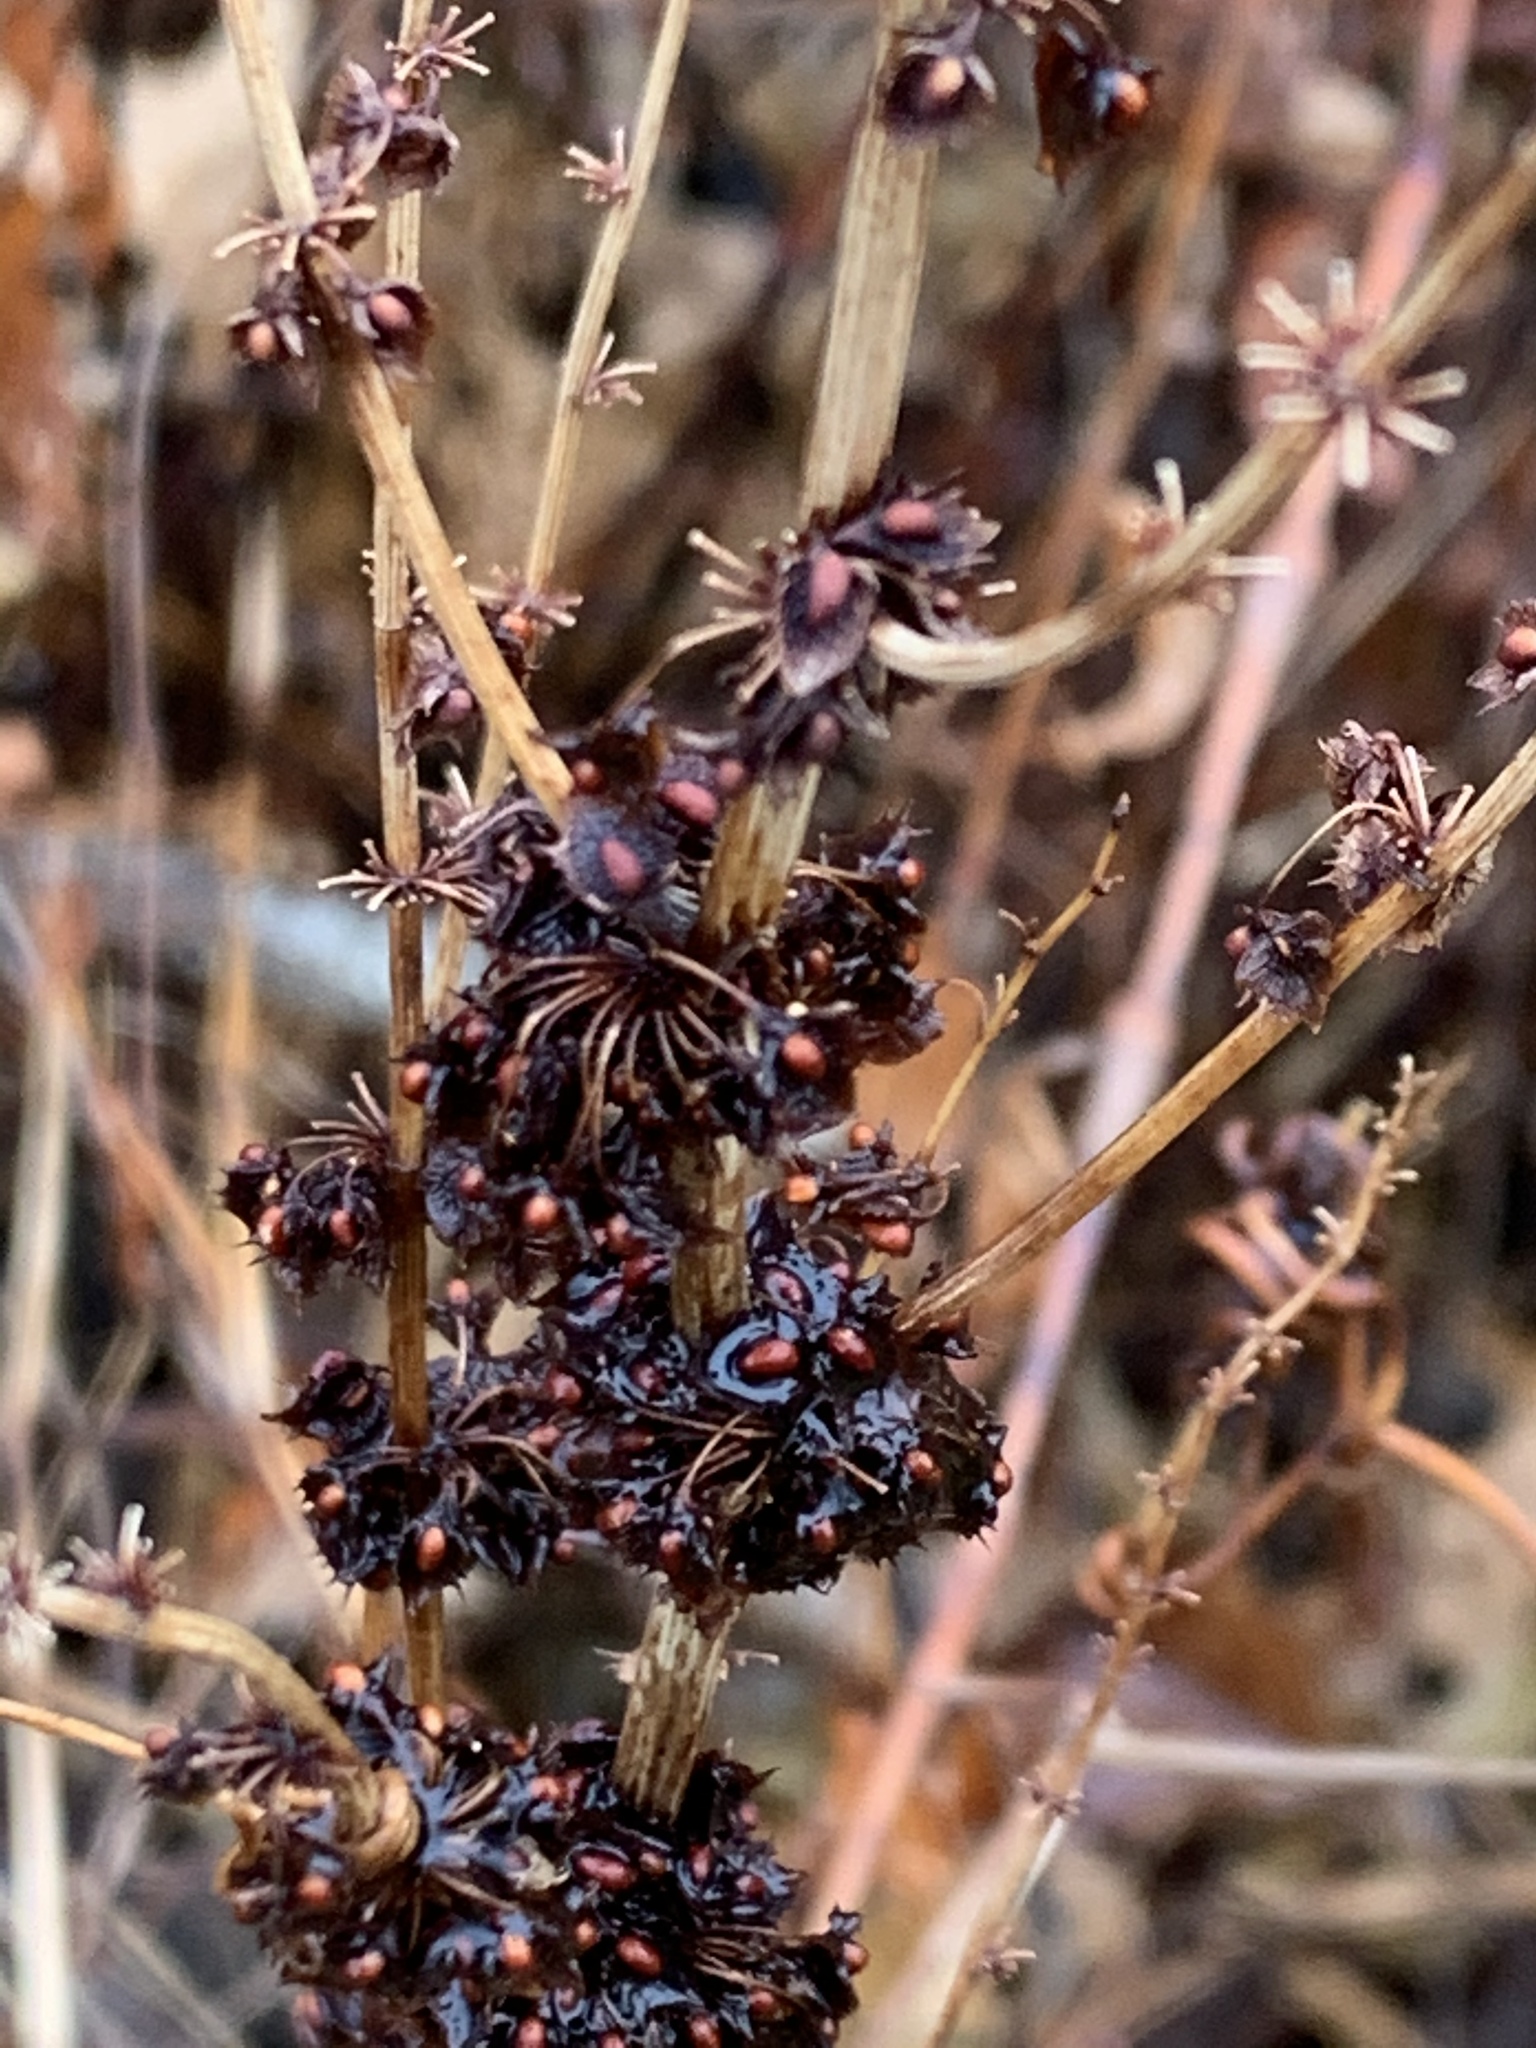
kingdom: Plantae
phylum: Tracheophyta
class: Magnoliopsida
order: Caryophyllales
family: Polygonaceae
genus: Rumex
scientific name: Rumex obtusifolius
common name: Bitter dock
